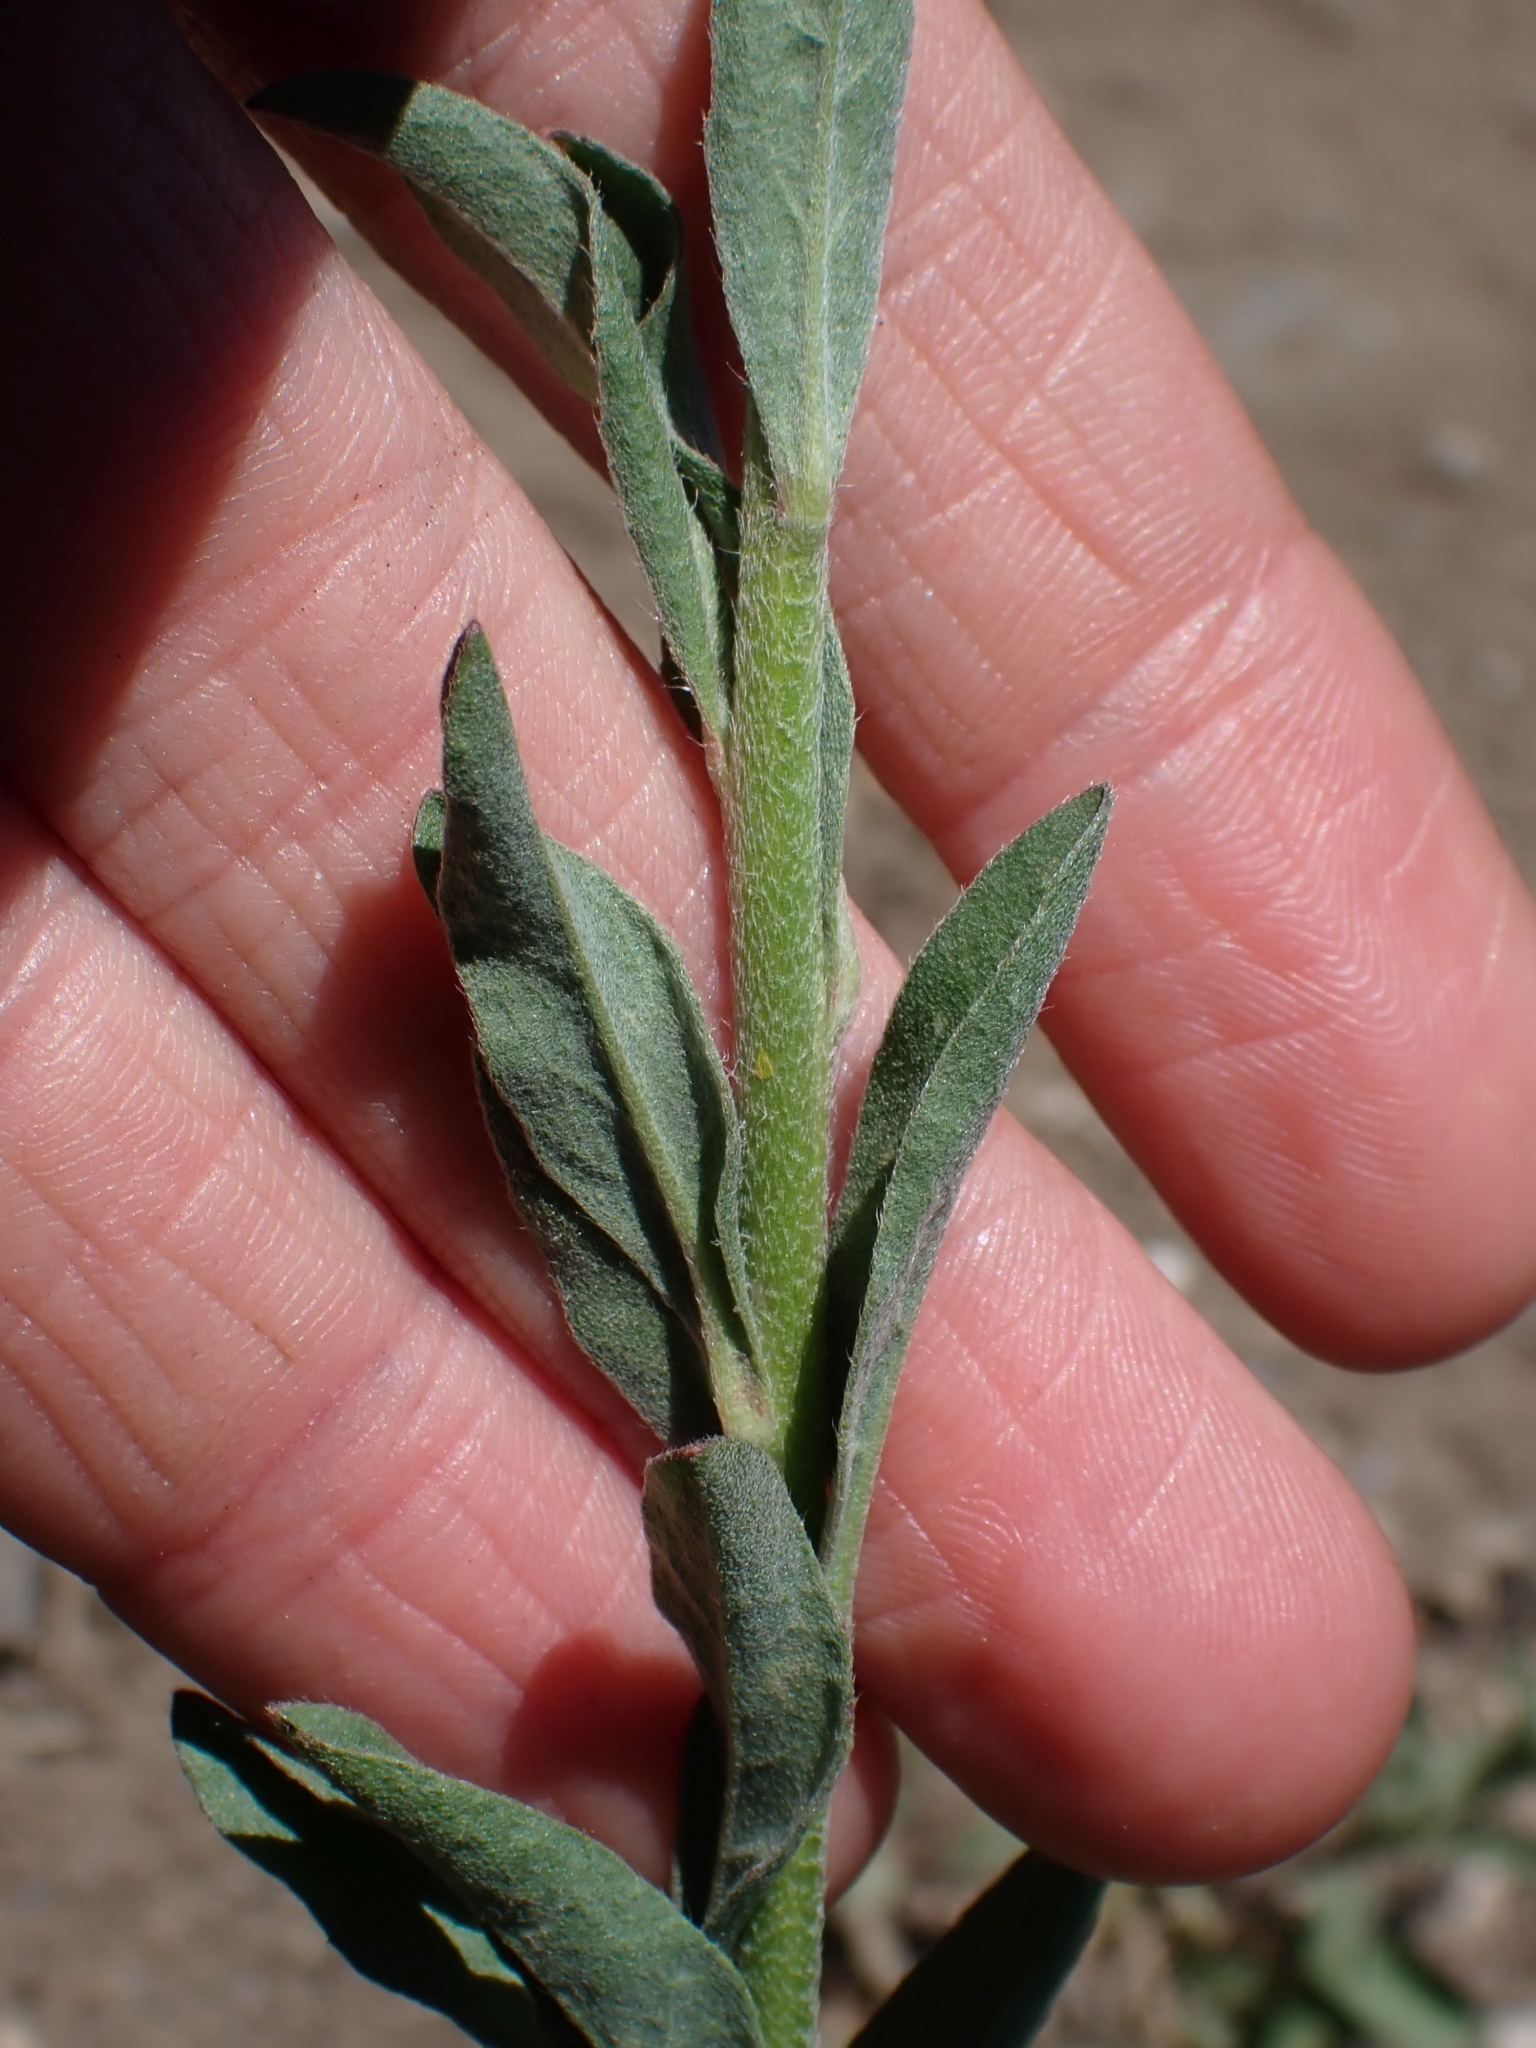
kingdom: Plantae
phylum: Tracheophyta
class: Magnoliopsida
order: Brassicales
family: Brassicaceae
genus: Berteroa
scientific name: Berteroa incana
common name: Hoary alison
